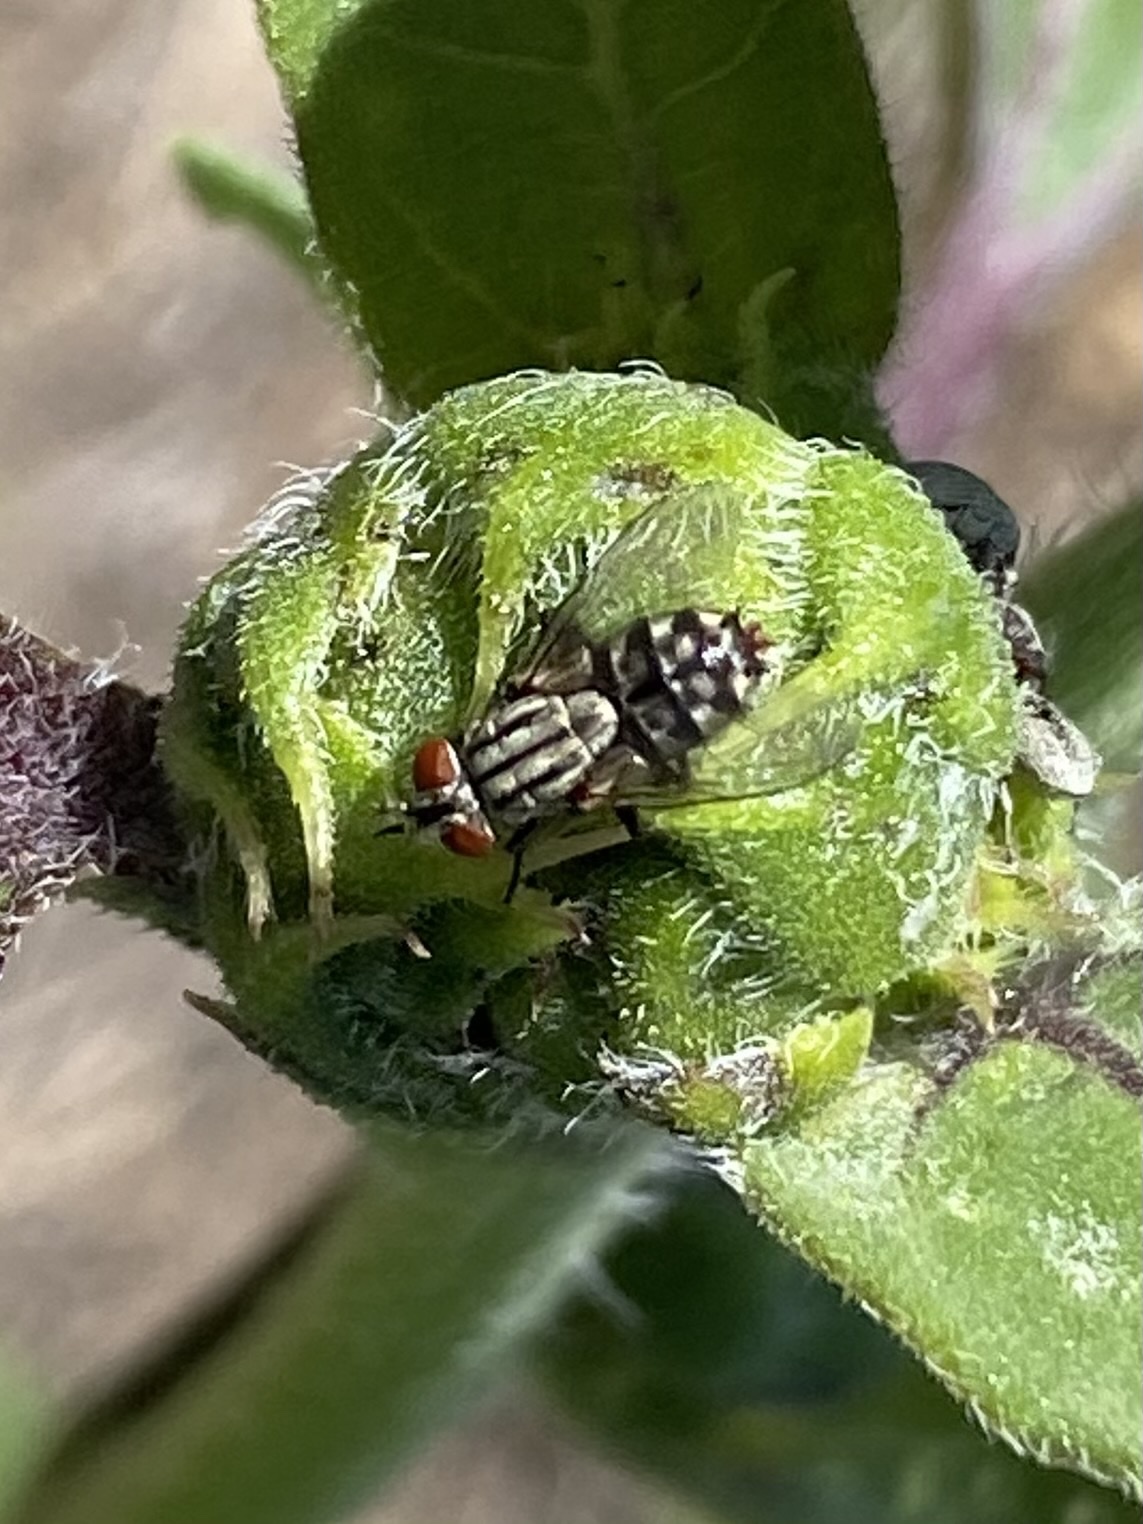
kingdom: Animalia
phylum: Arthropoda
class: Insecta
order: Diptera
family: Sarcophagidae
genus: Sarcophaga
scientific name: Sarcophaga
